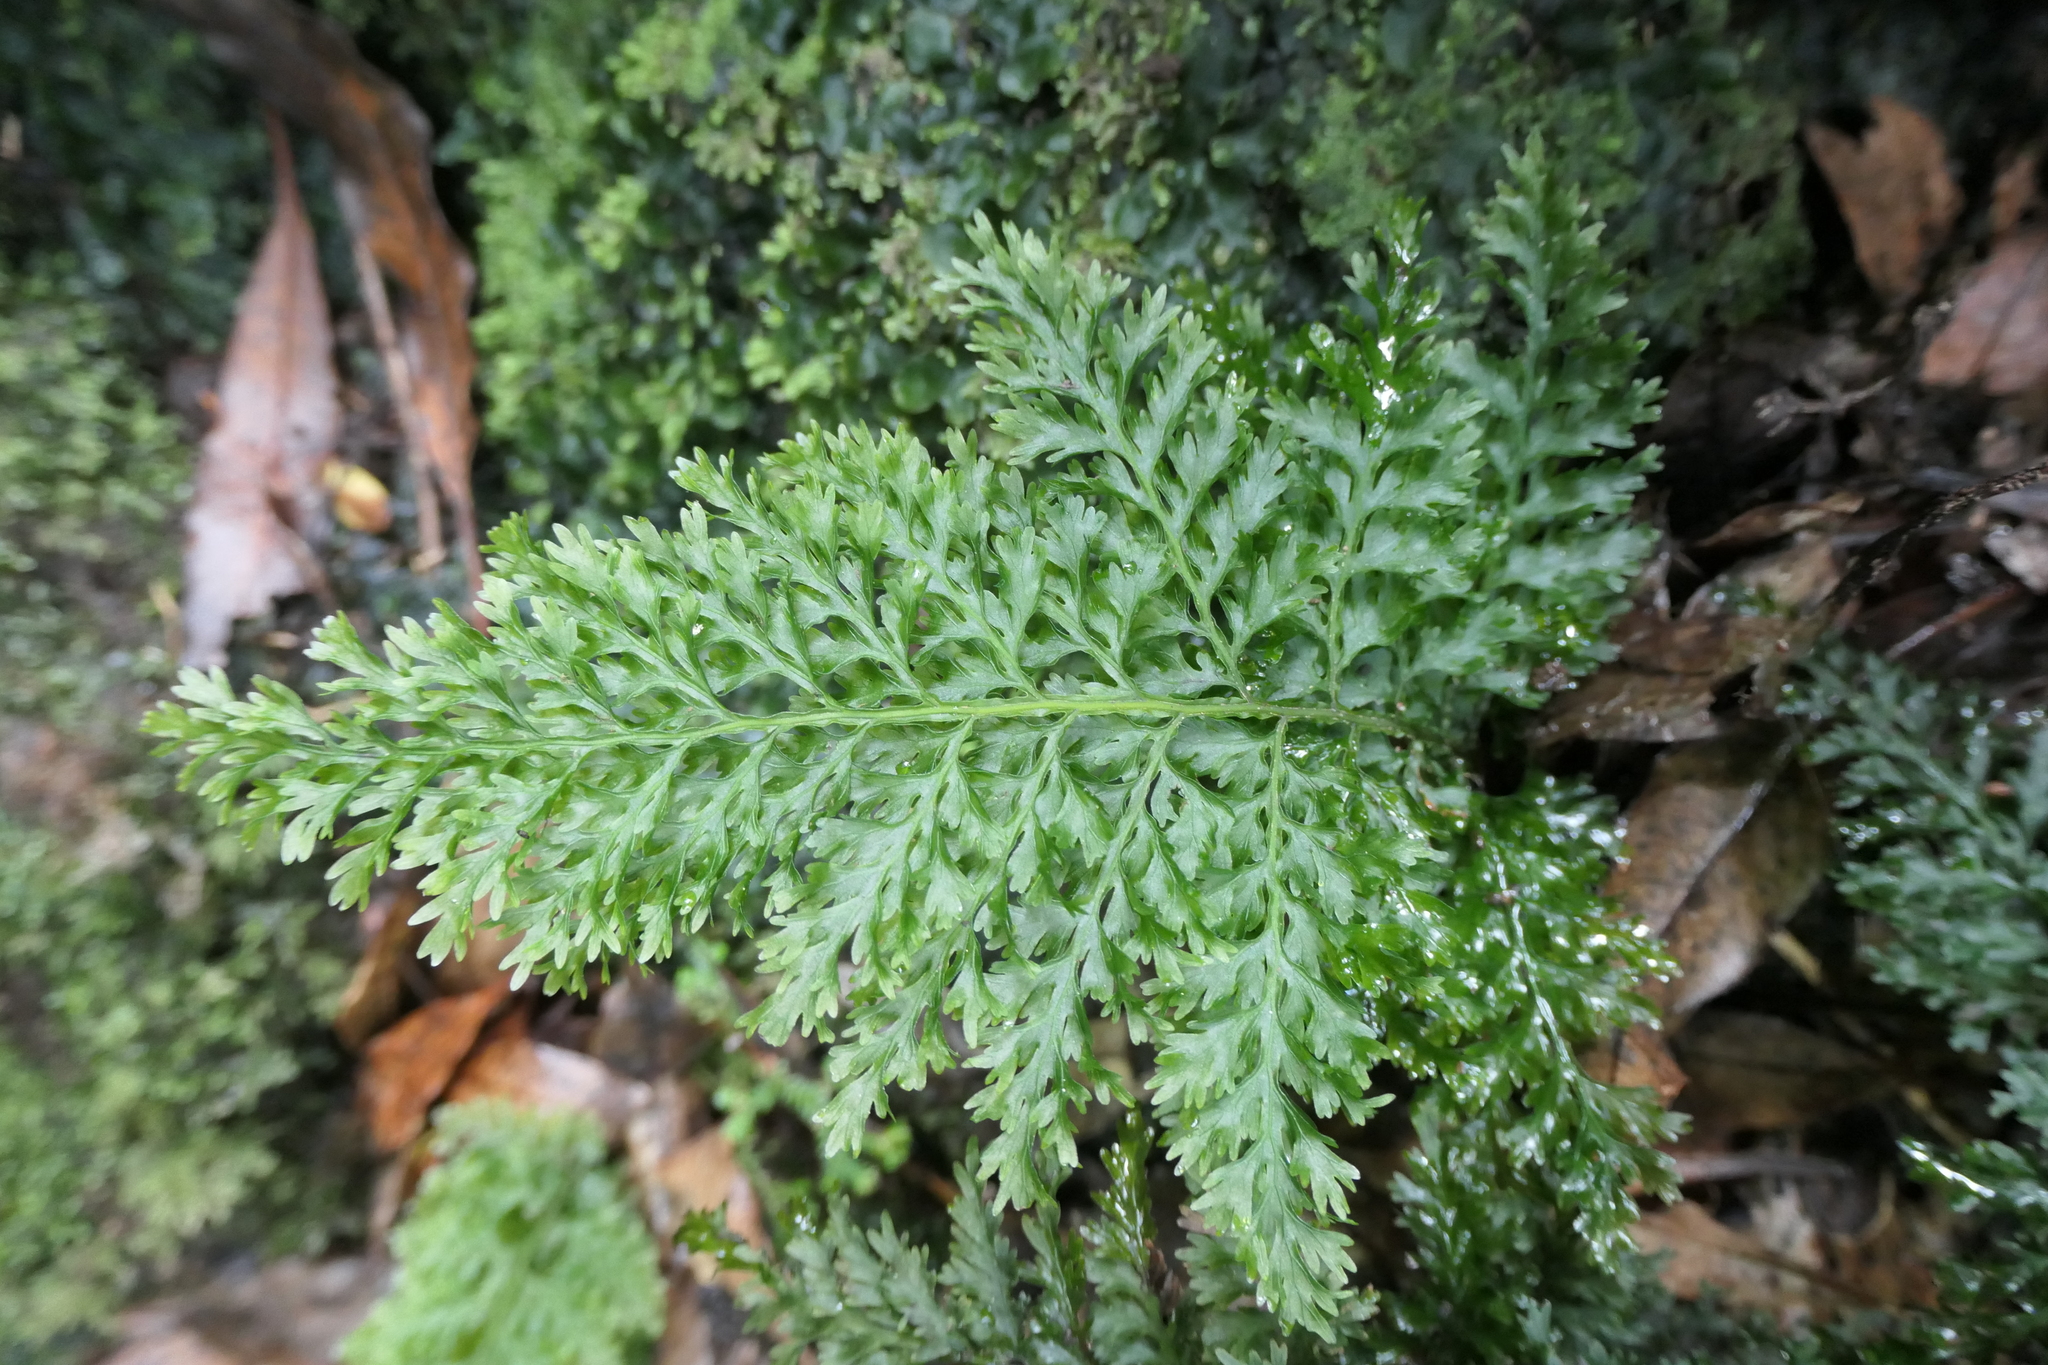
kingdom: Plantae
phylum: Tracheophyta
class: Polypodiopsida
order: Hymenophyllales
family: Hymenophyllaceae
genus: Vandenboschia
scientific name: Vandenboschia speciosa
